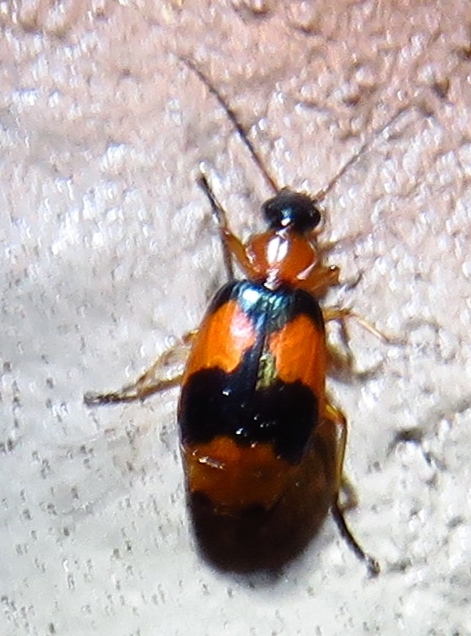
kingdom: Animalia
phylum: Arthropoda
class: Insecta
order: Coleoptera
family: Carabidae
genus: Lebia
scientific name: Lebia pulchella
